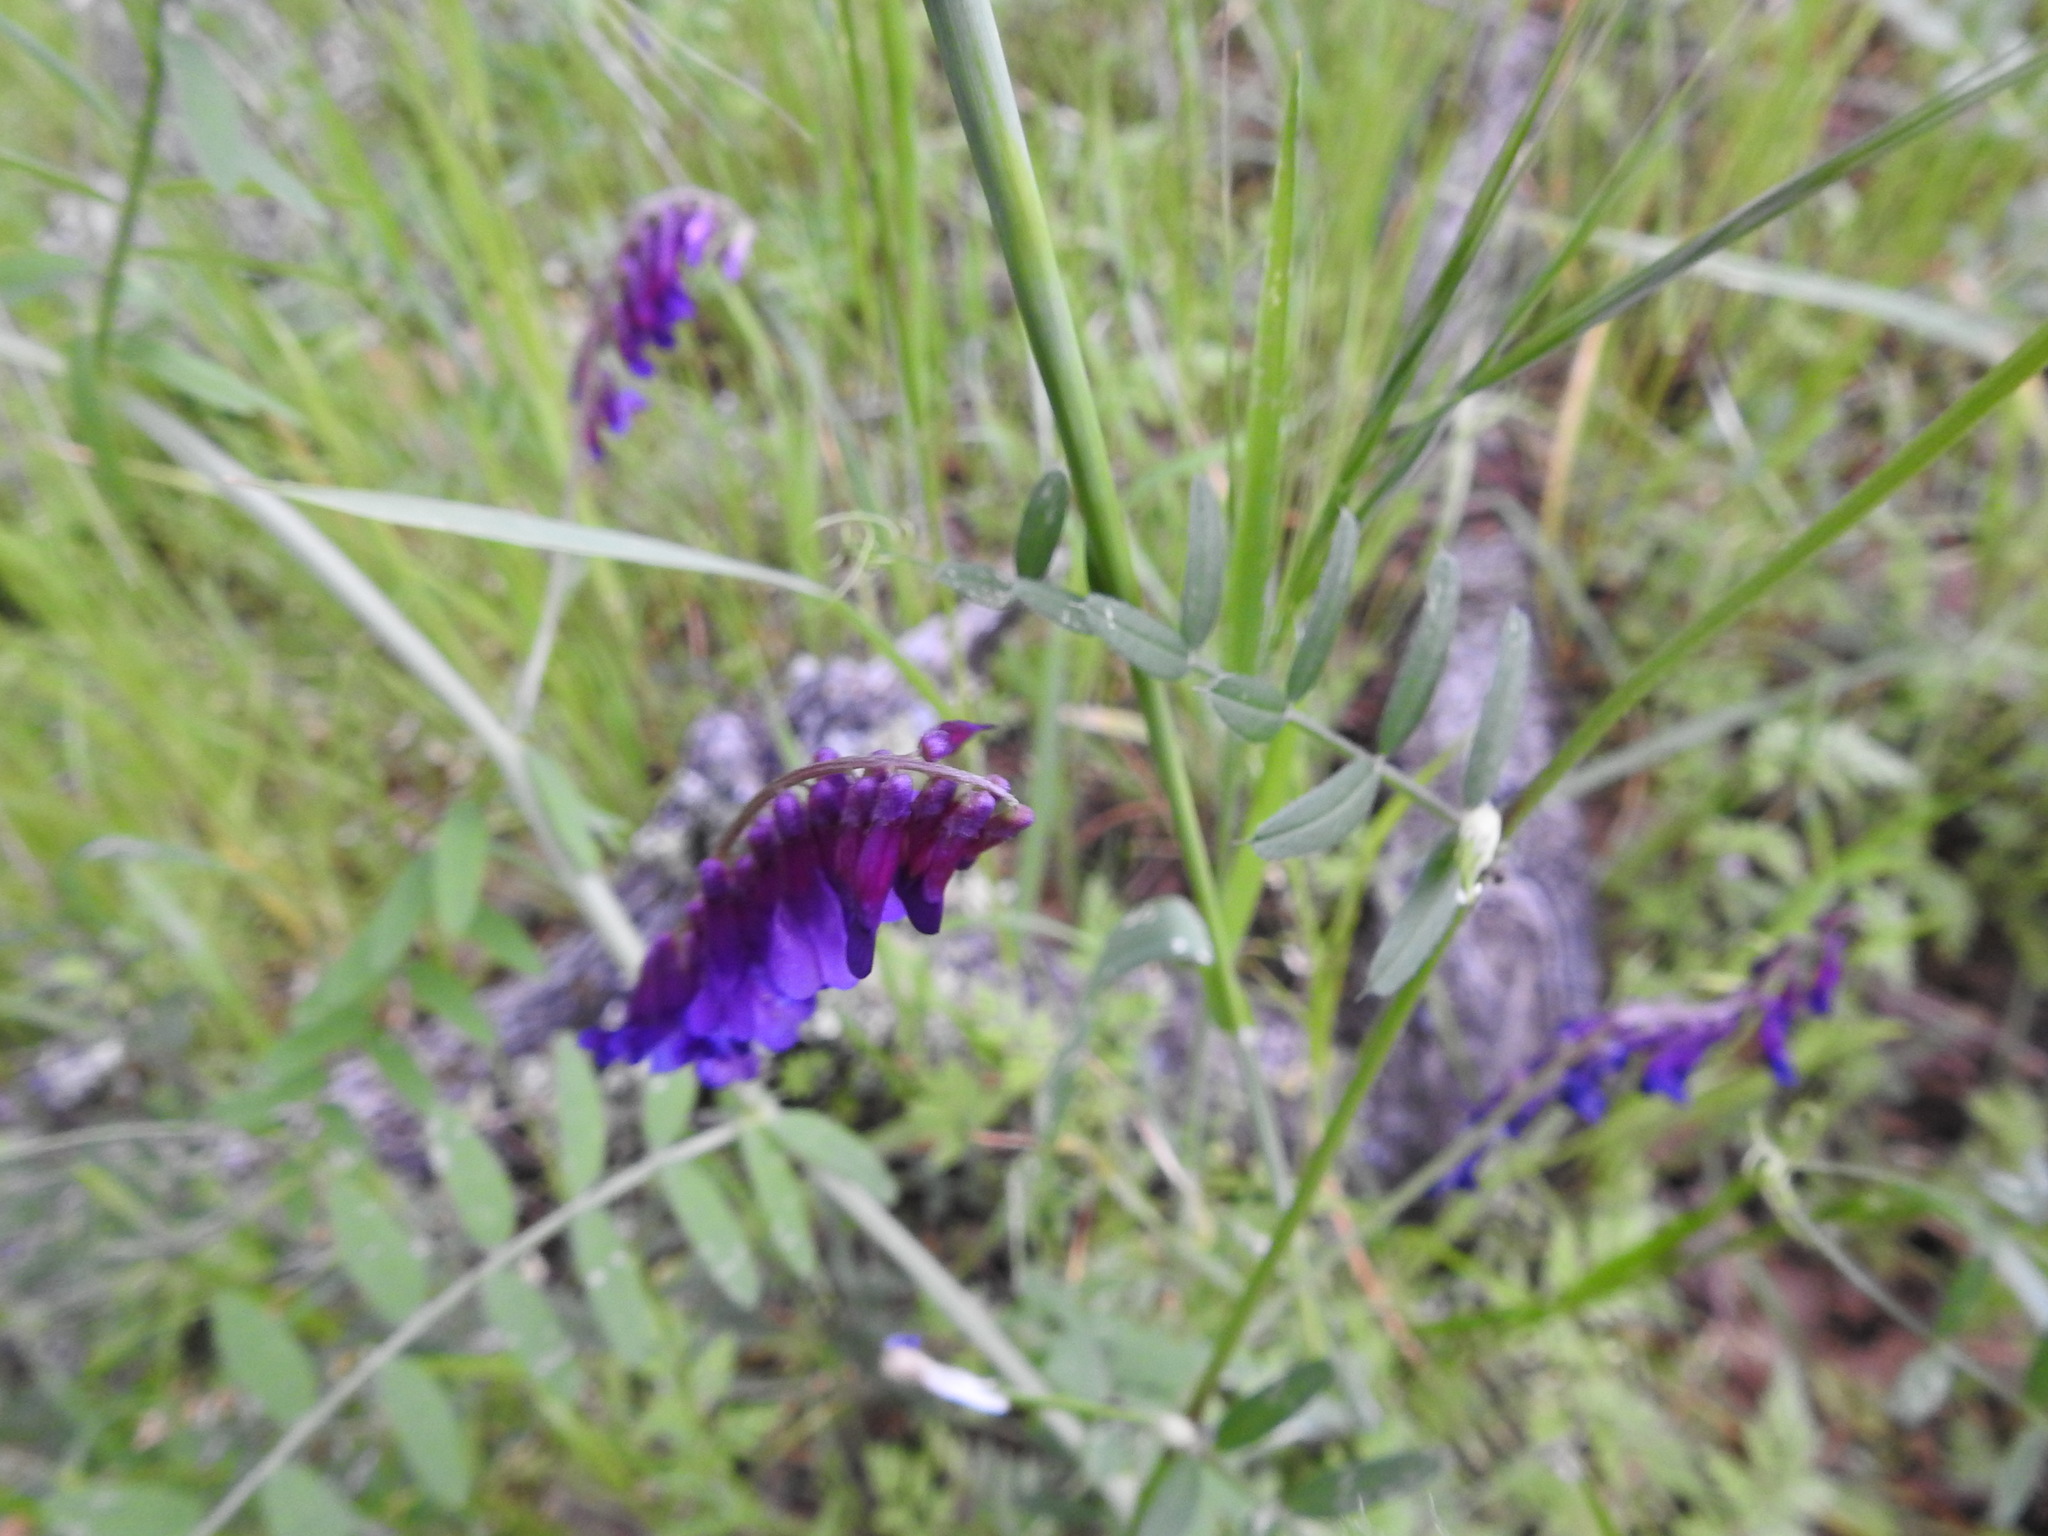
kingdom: Plantae
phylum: Tracheophyta
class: Magnoliopsida
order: Fabales
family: Fabaceae
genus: Vicia
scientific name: Vicia villosa
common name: Fodder vetch
